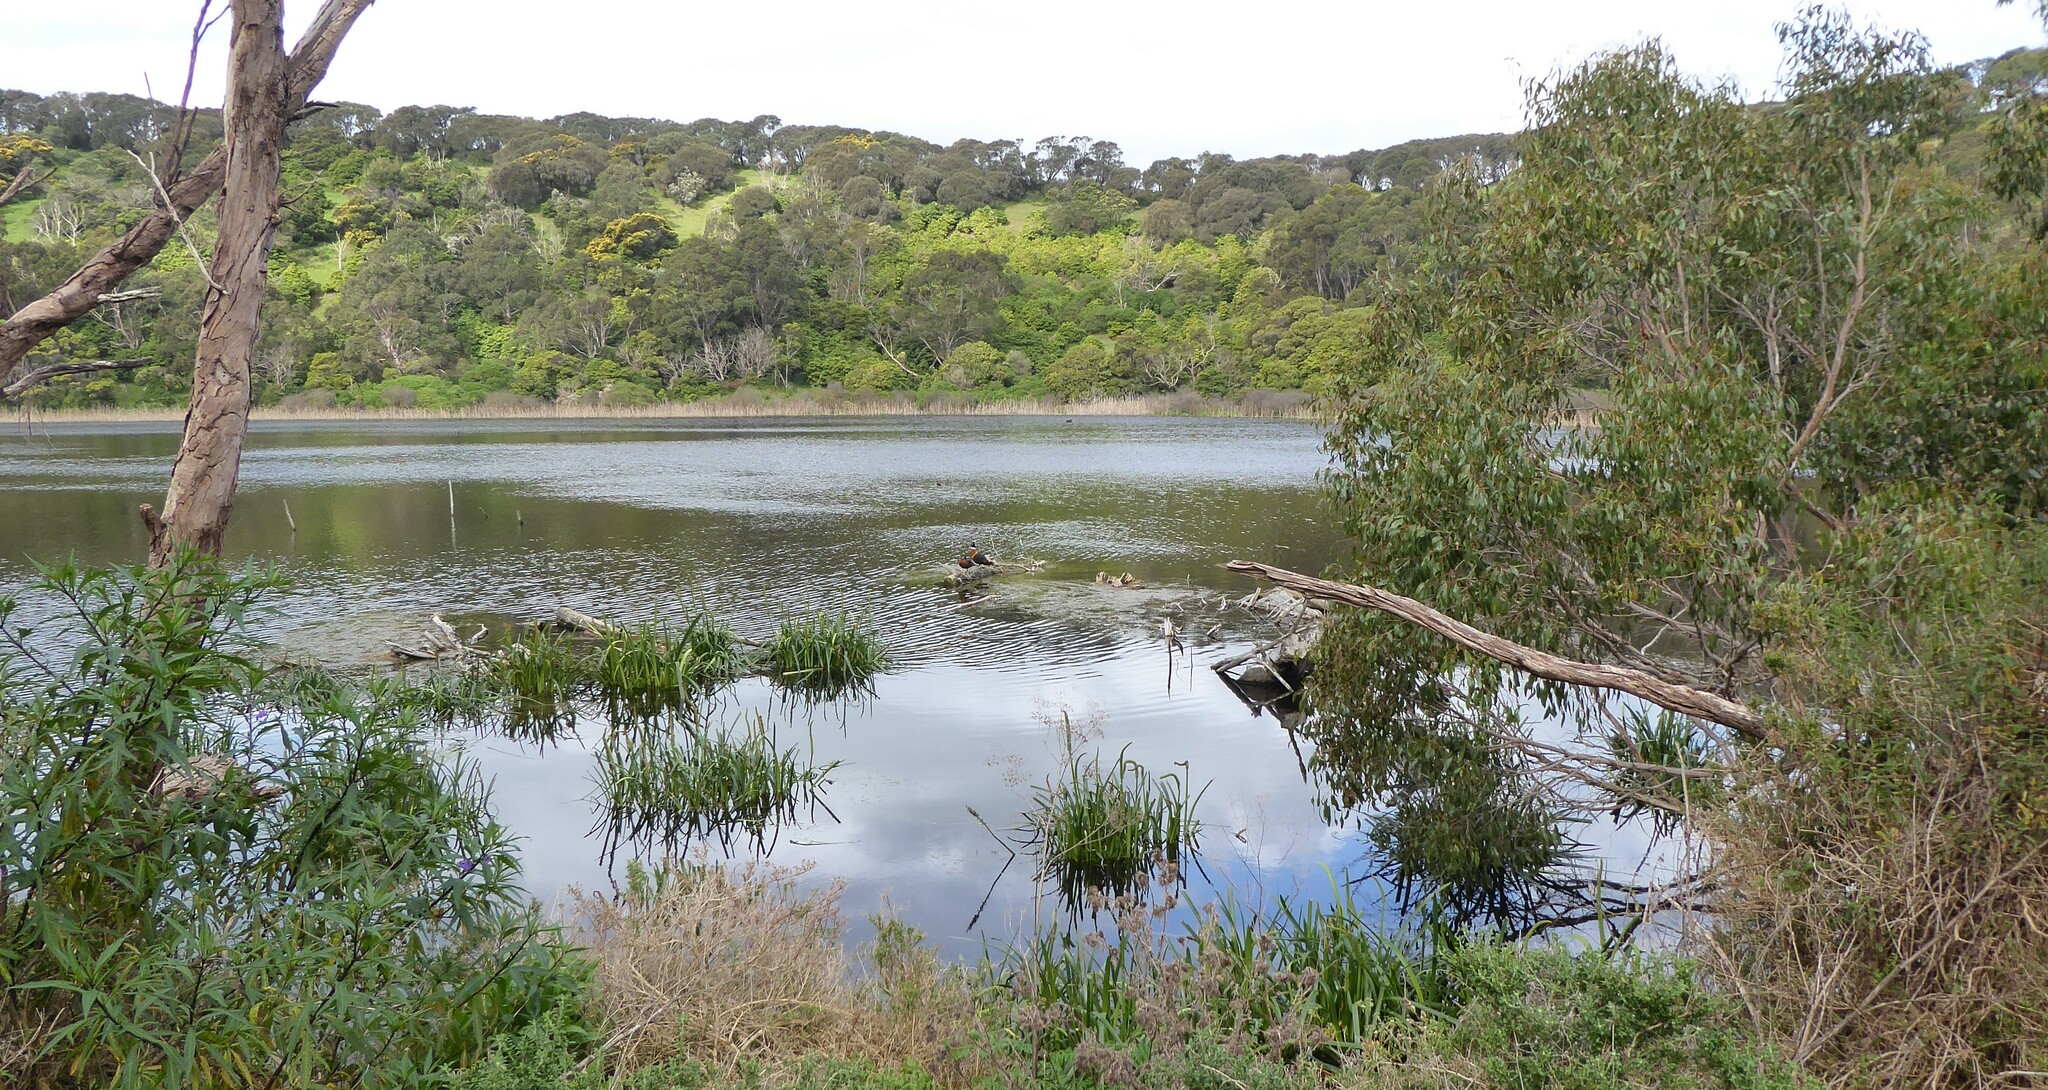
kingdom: Animalia
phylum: Chordata
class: Aves
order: Anseriformes
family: Anatidae
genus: Tadorna
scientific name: Tadorna tadornoides
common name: Australian shelduck
